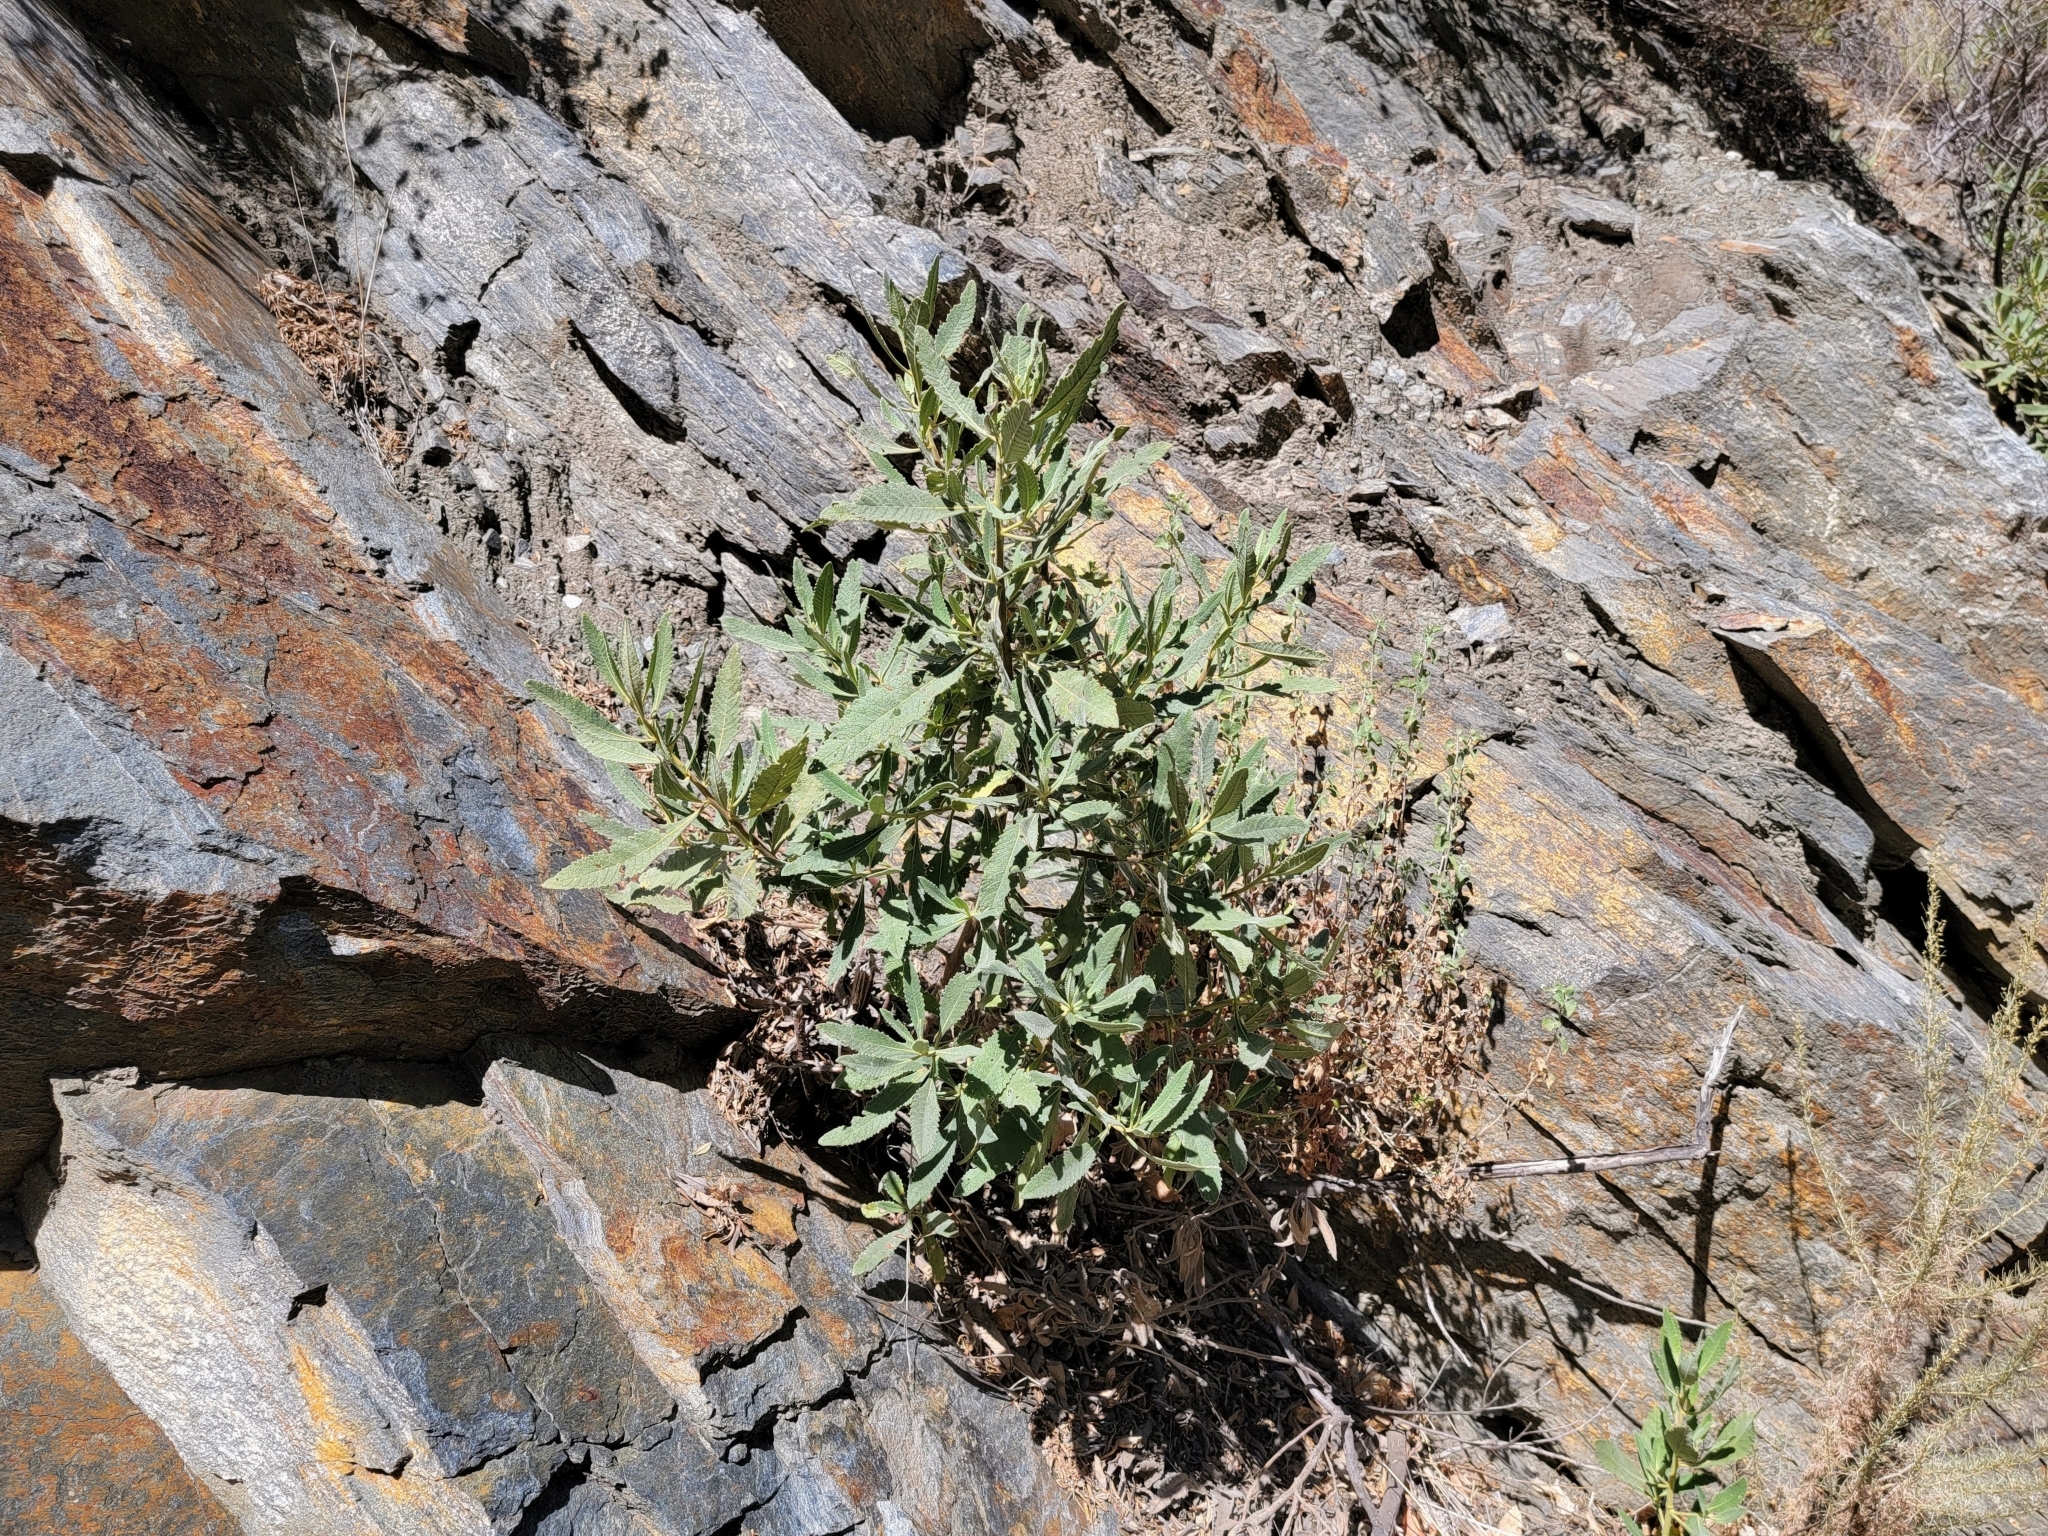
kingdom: Plantae
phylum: Tracheophyta
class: Magnoliopsida
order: Boraginales
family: Namaceae
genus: Eriodictyon
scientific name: Eriodictyon crassifolium
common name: Thick-leaf yerba-santa
